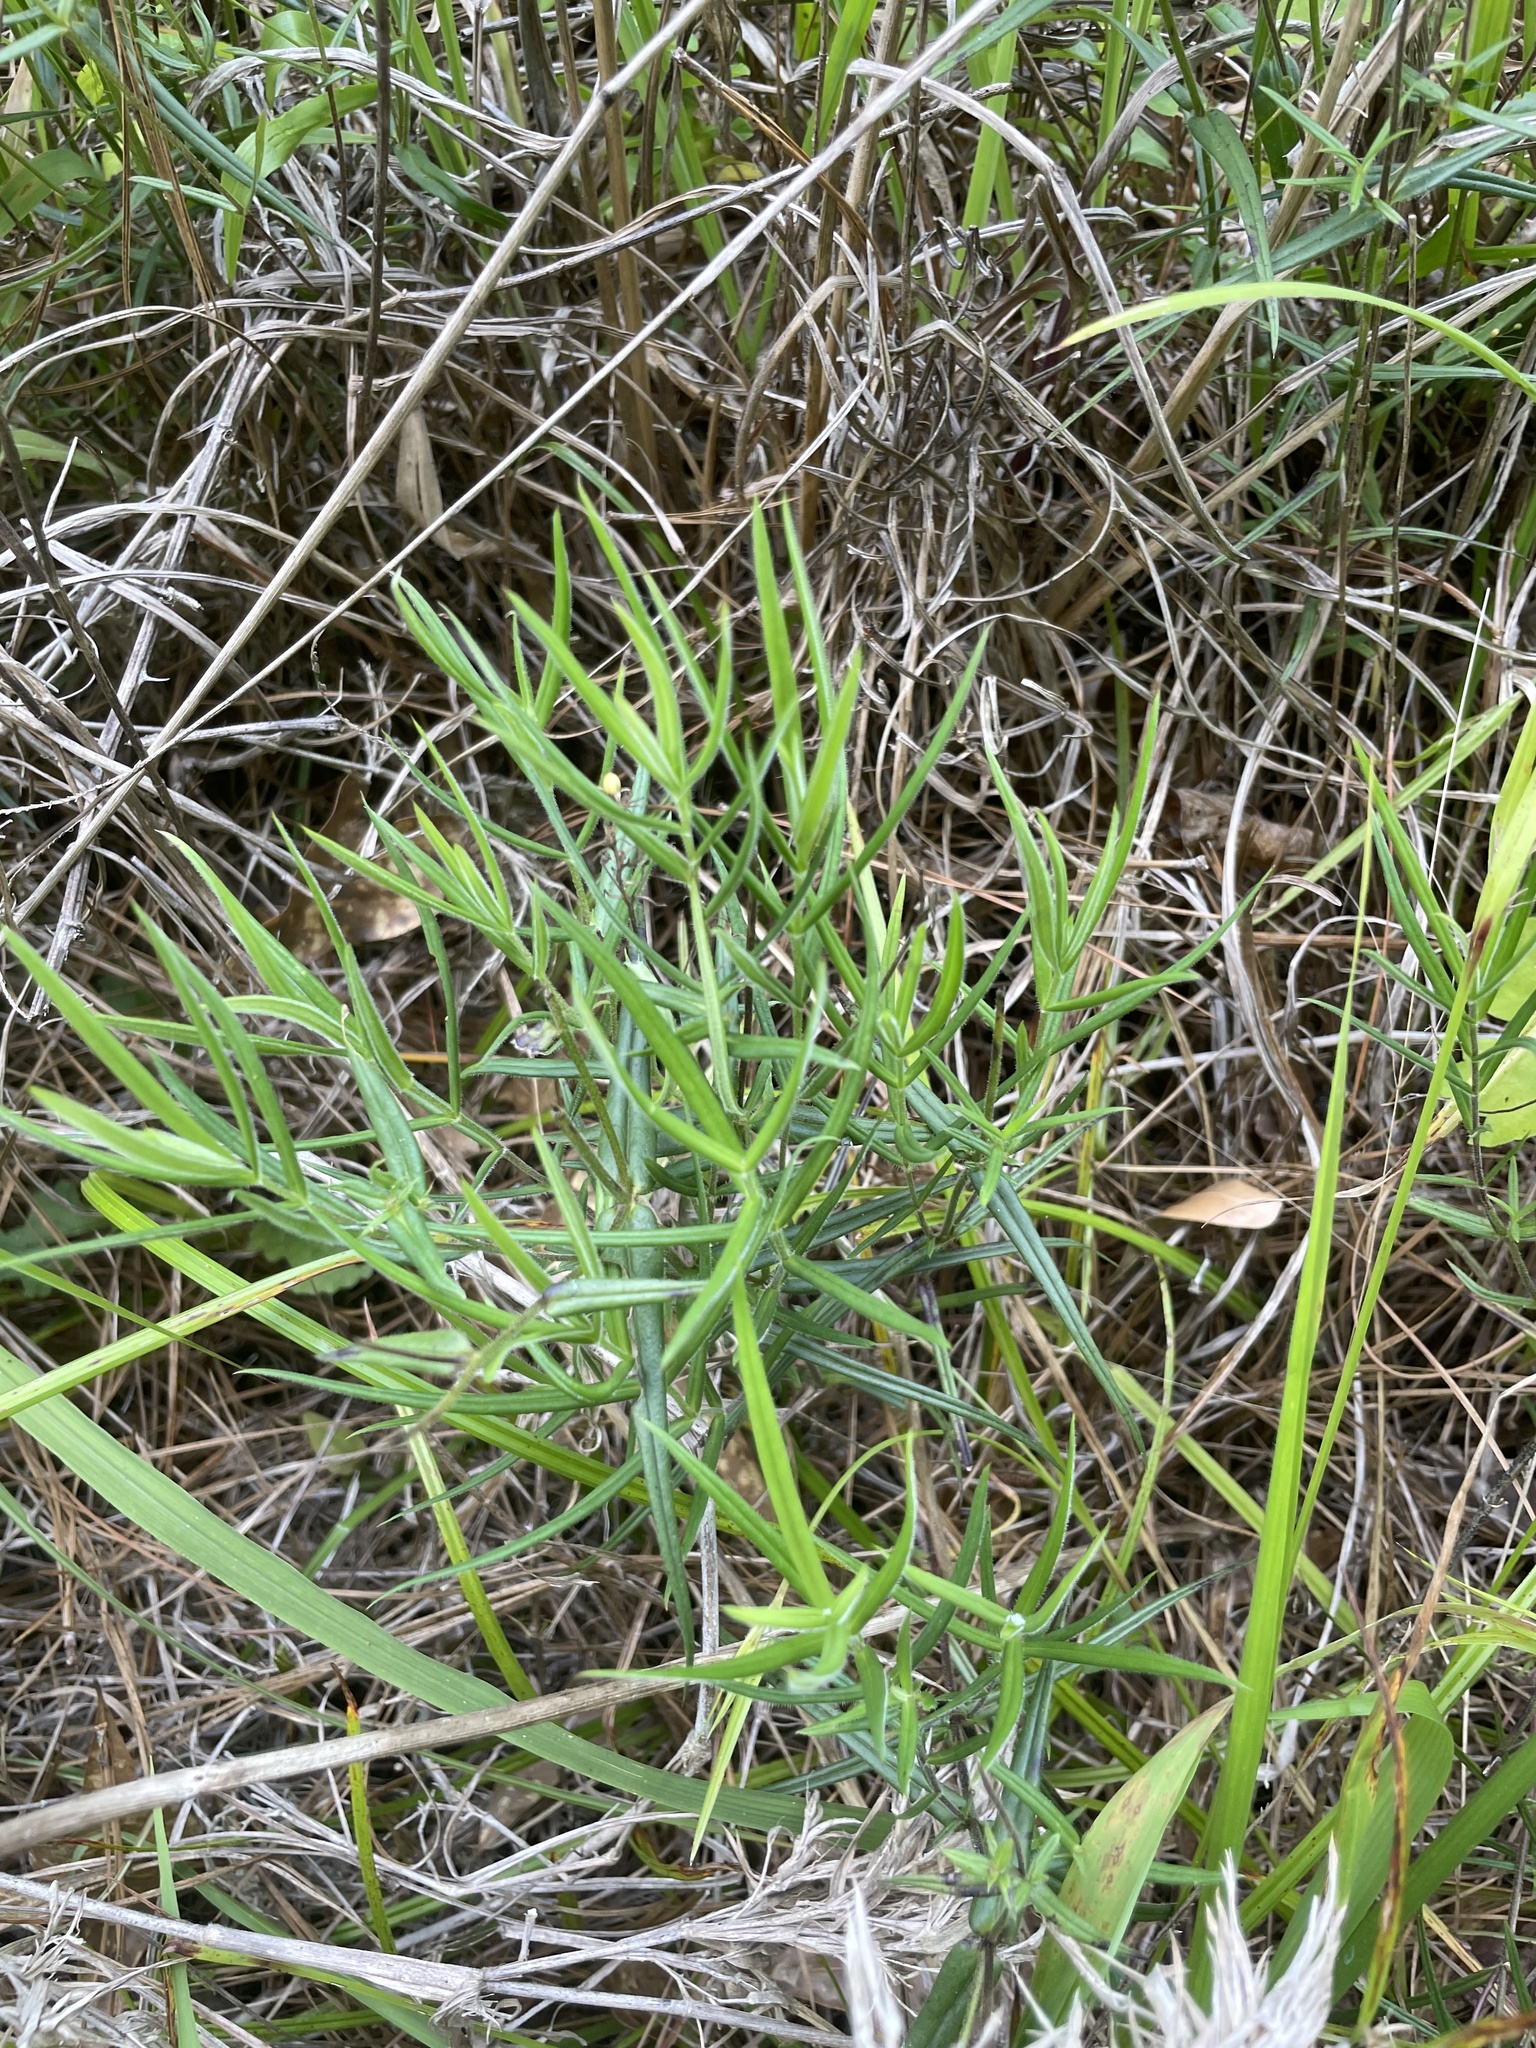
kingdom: Plantae
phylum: Tracheophyta
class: Magnoliopsida
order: Ericales
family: Polemoniaceae
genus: Phlox
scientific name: Phlox pilosa
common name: Prairie phlox
